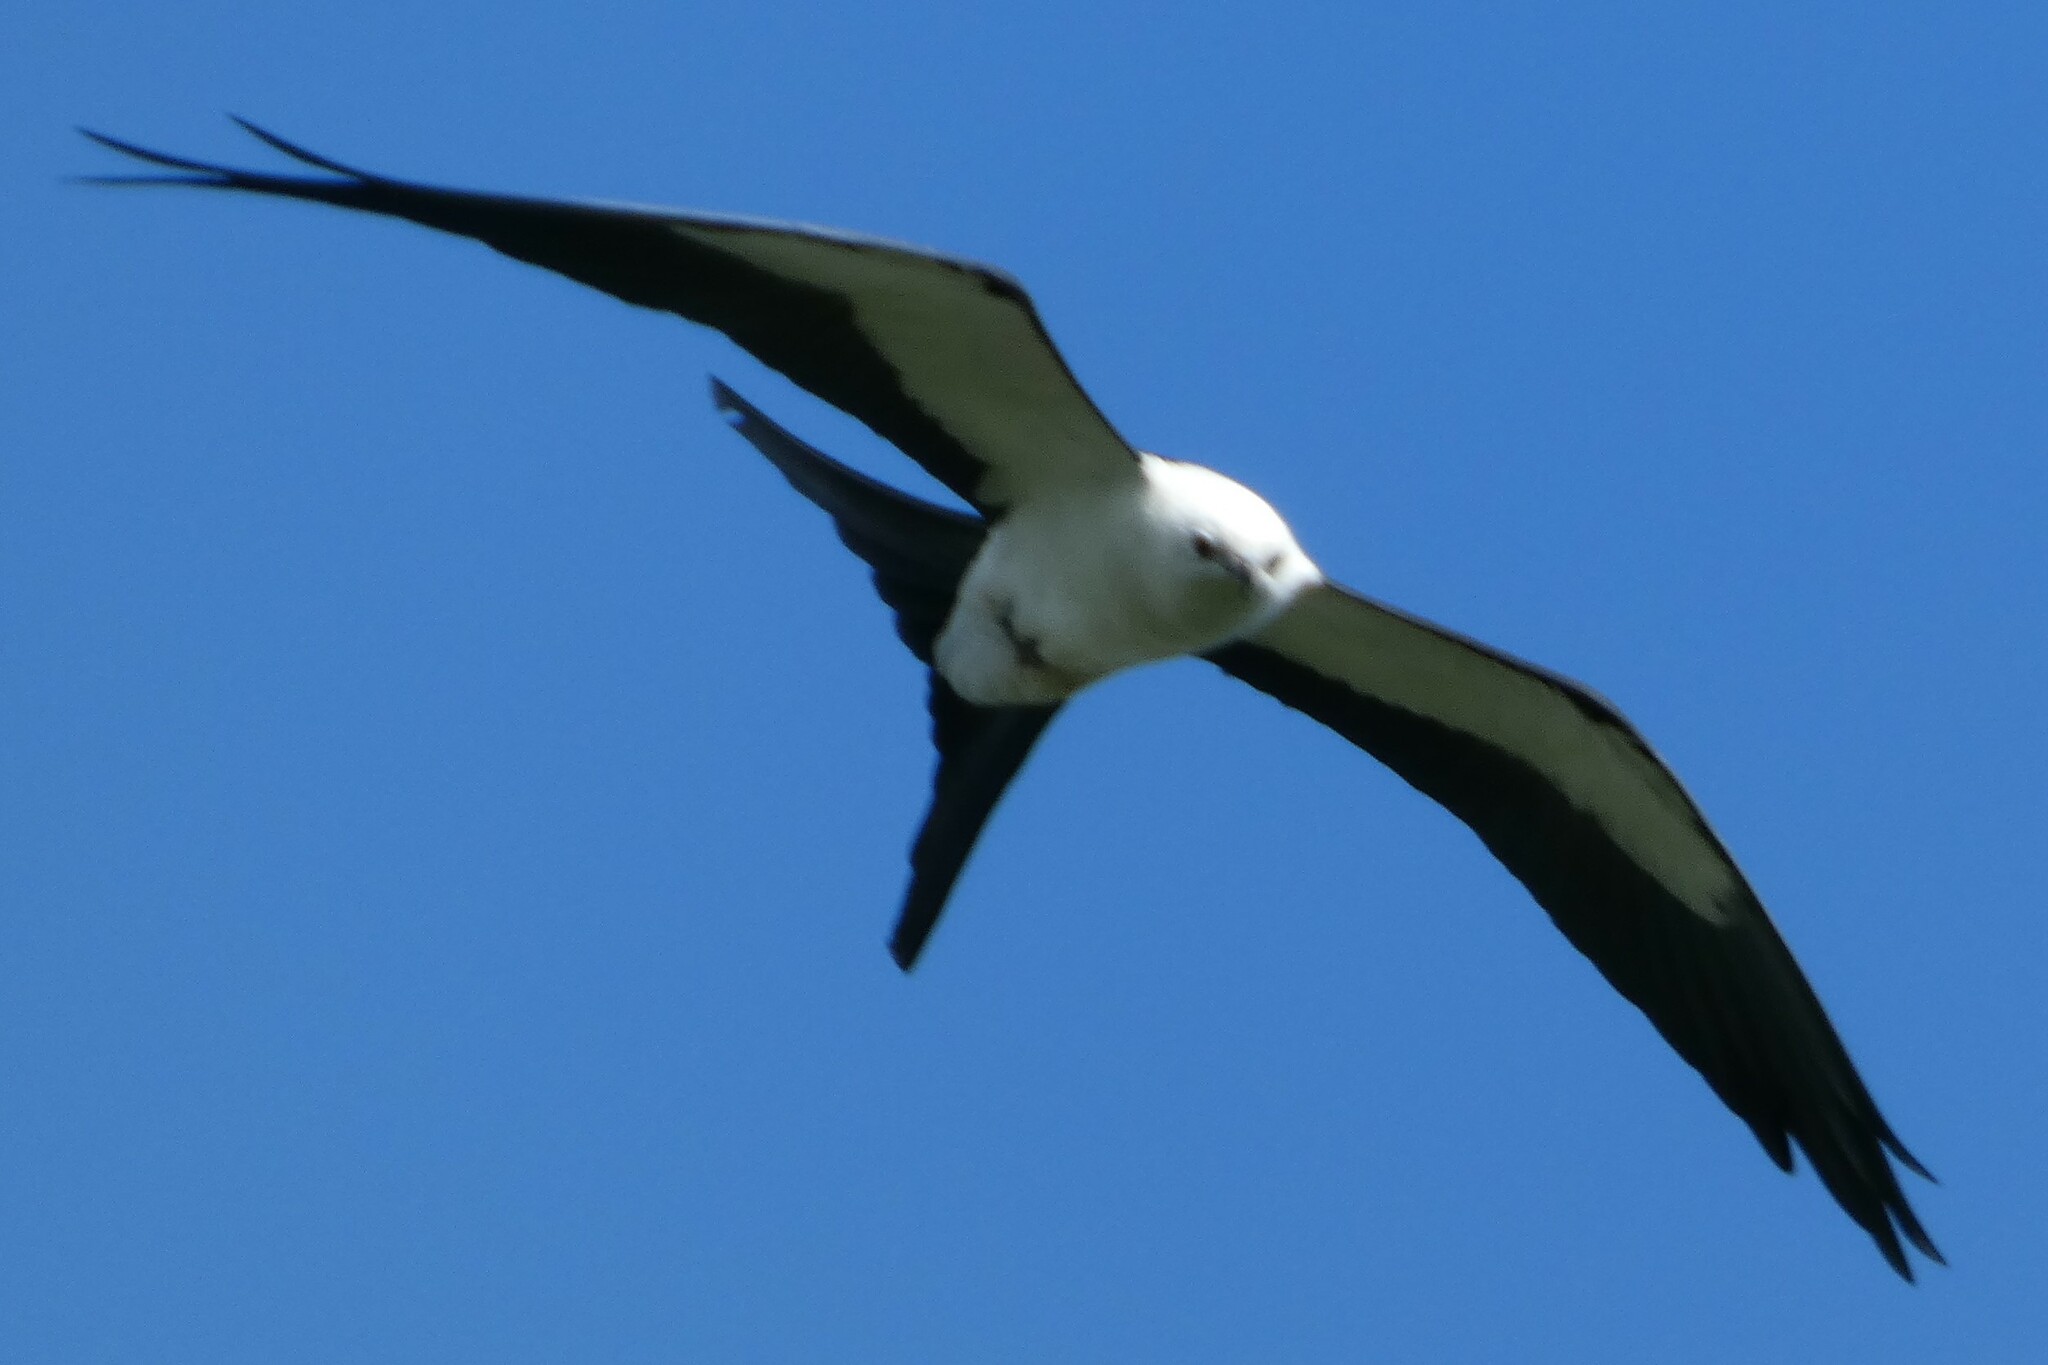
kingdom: Animalia
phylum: Chordata
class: Aves
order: Accipitriformes
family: Accipitridae
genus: Elanoides
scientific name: Elanoides forficatus
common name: Swallow-tailed kite
